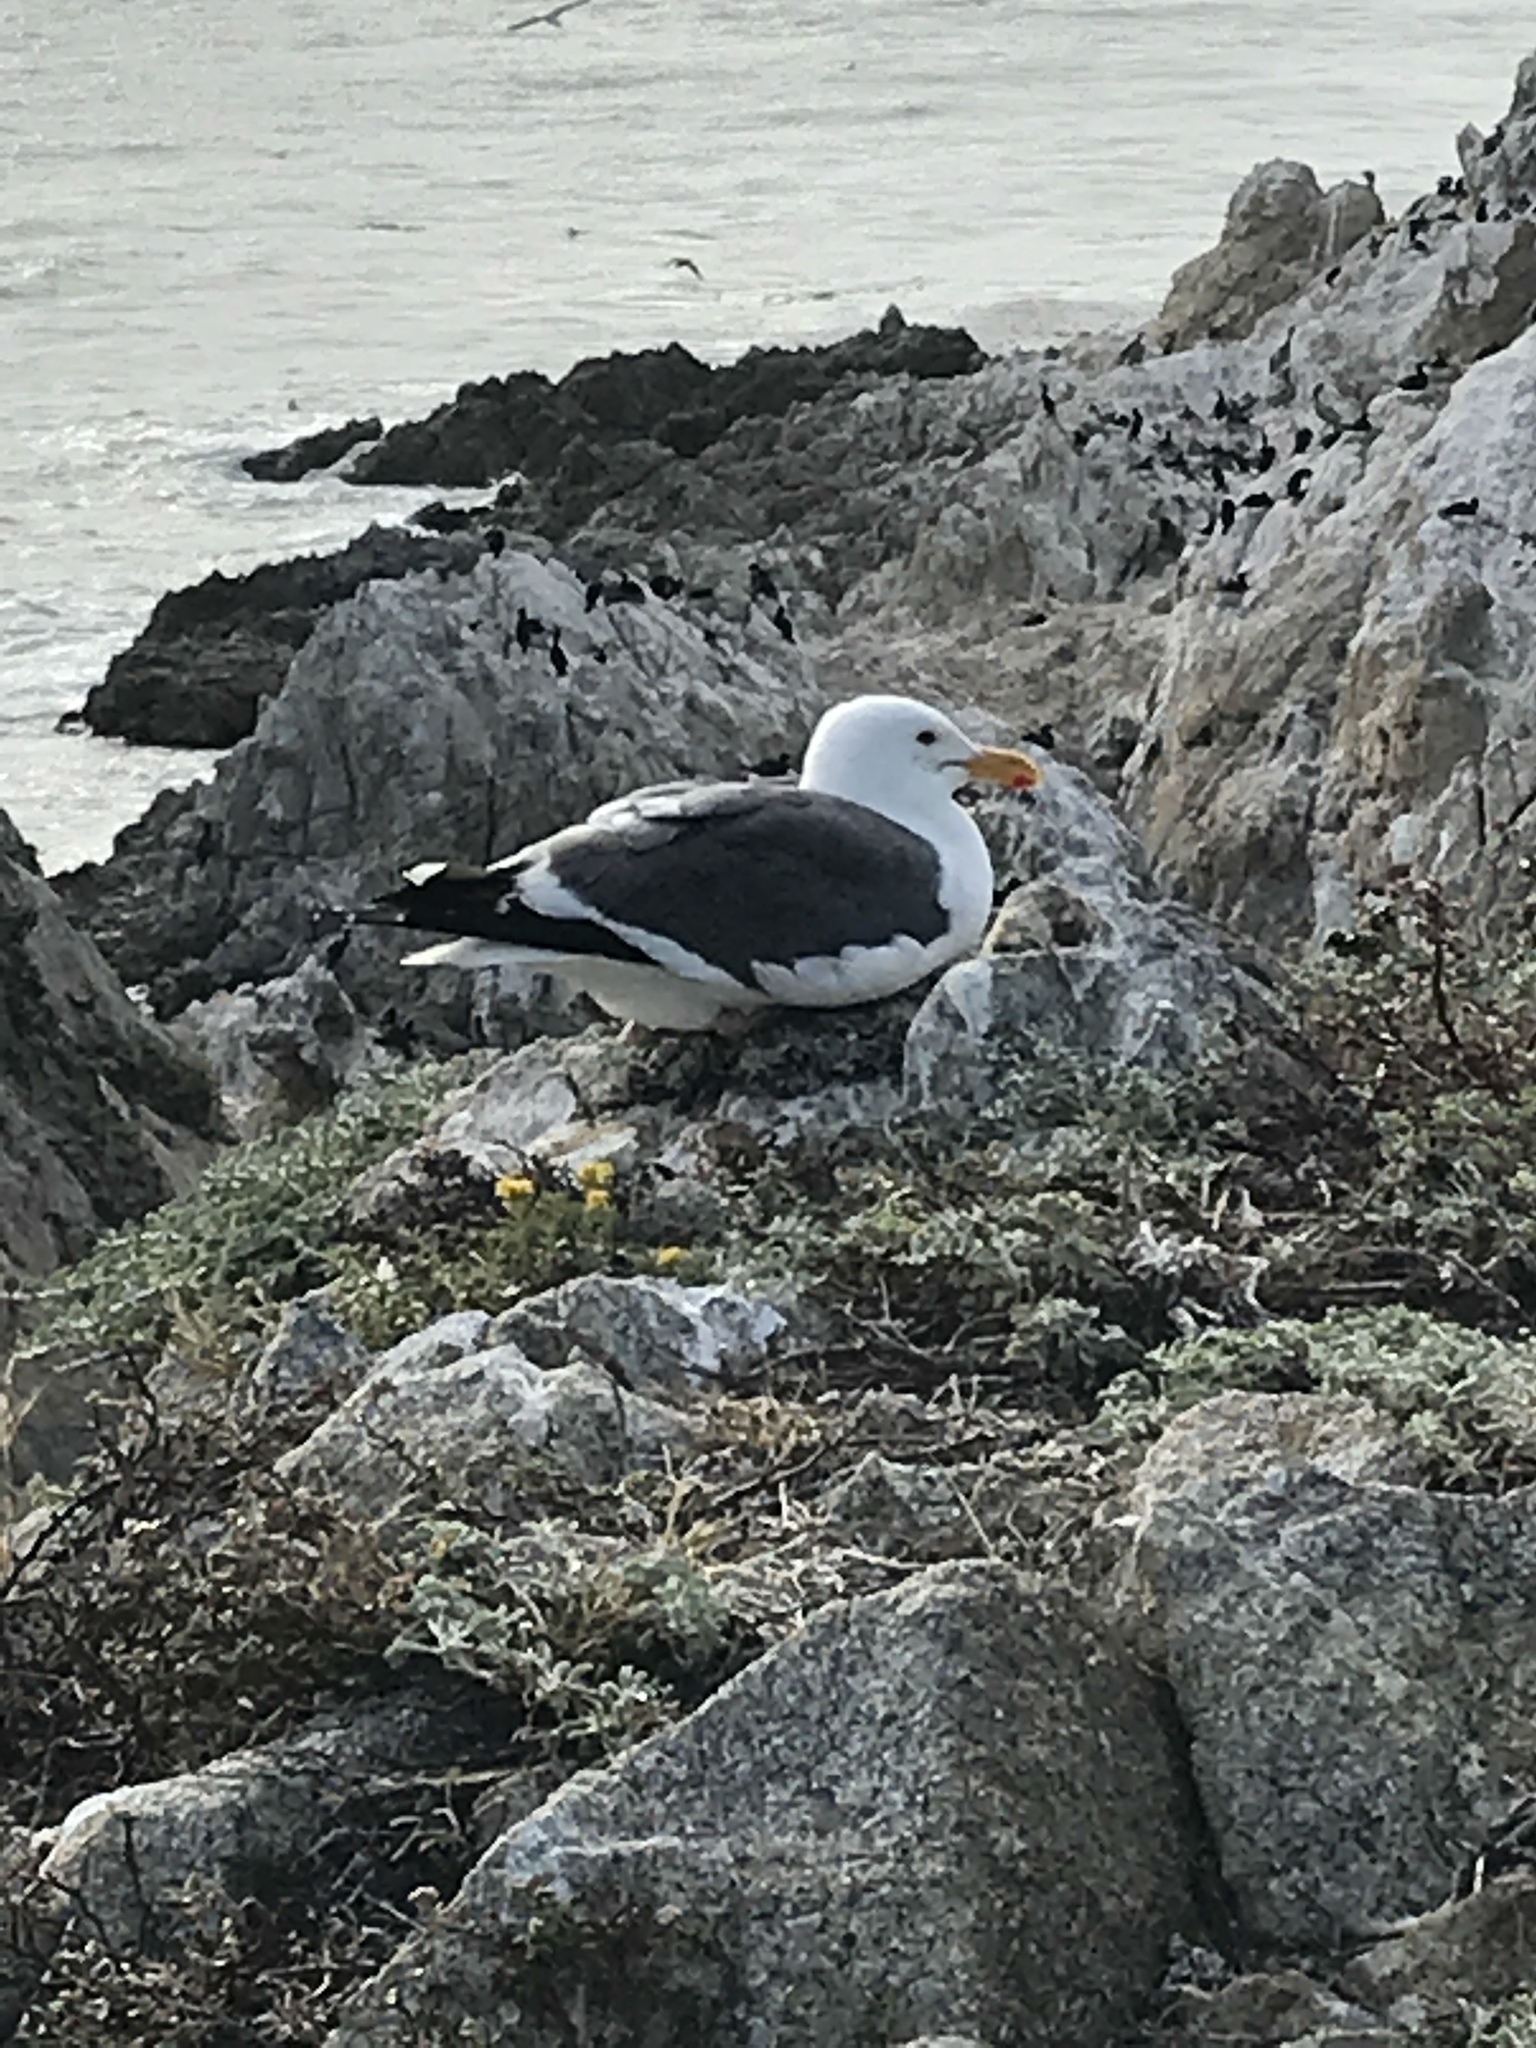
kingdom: Animalia
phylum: Chordata
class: Aves
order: Charadriiformes
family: Laridae
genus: Larus
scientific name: Larus occidentalis
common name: Western gull
